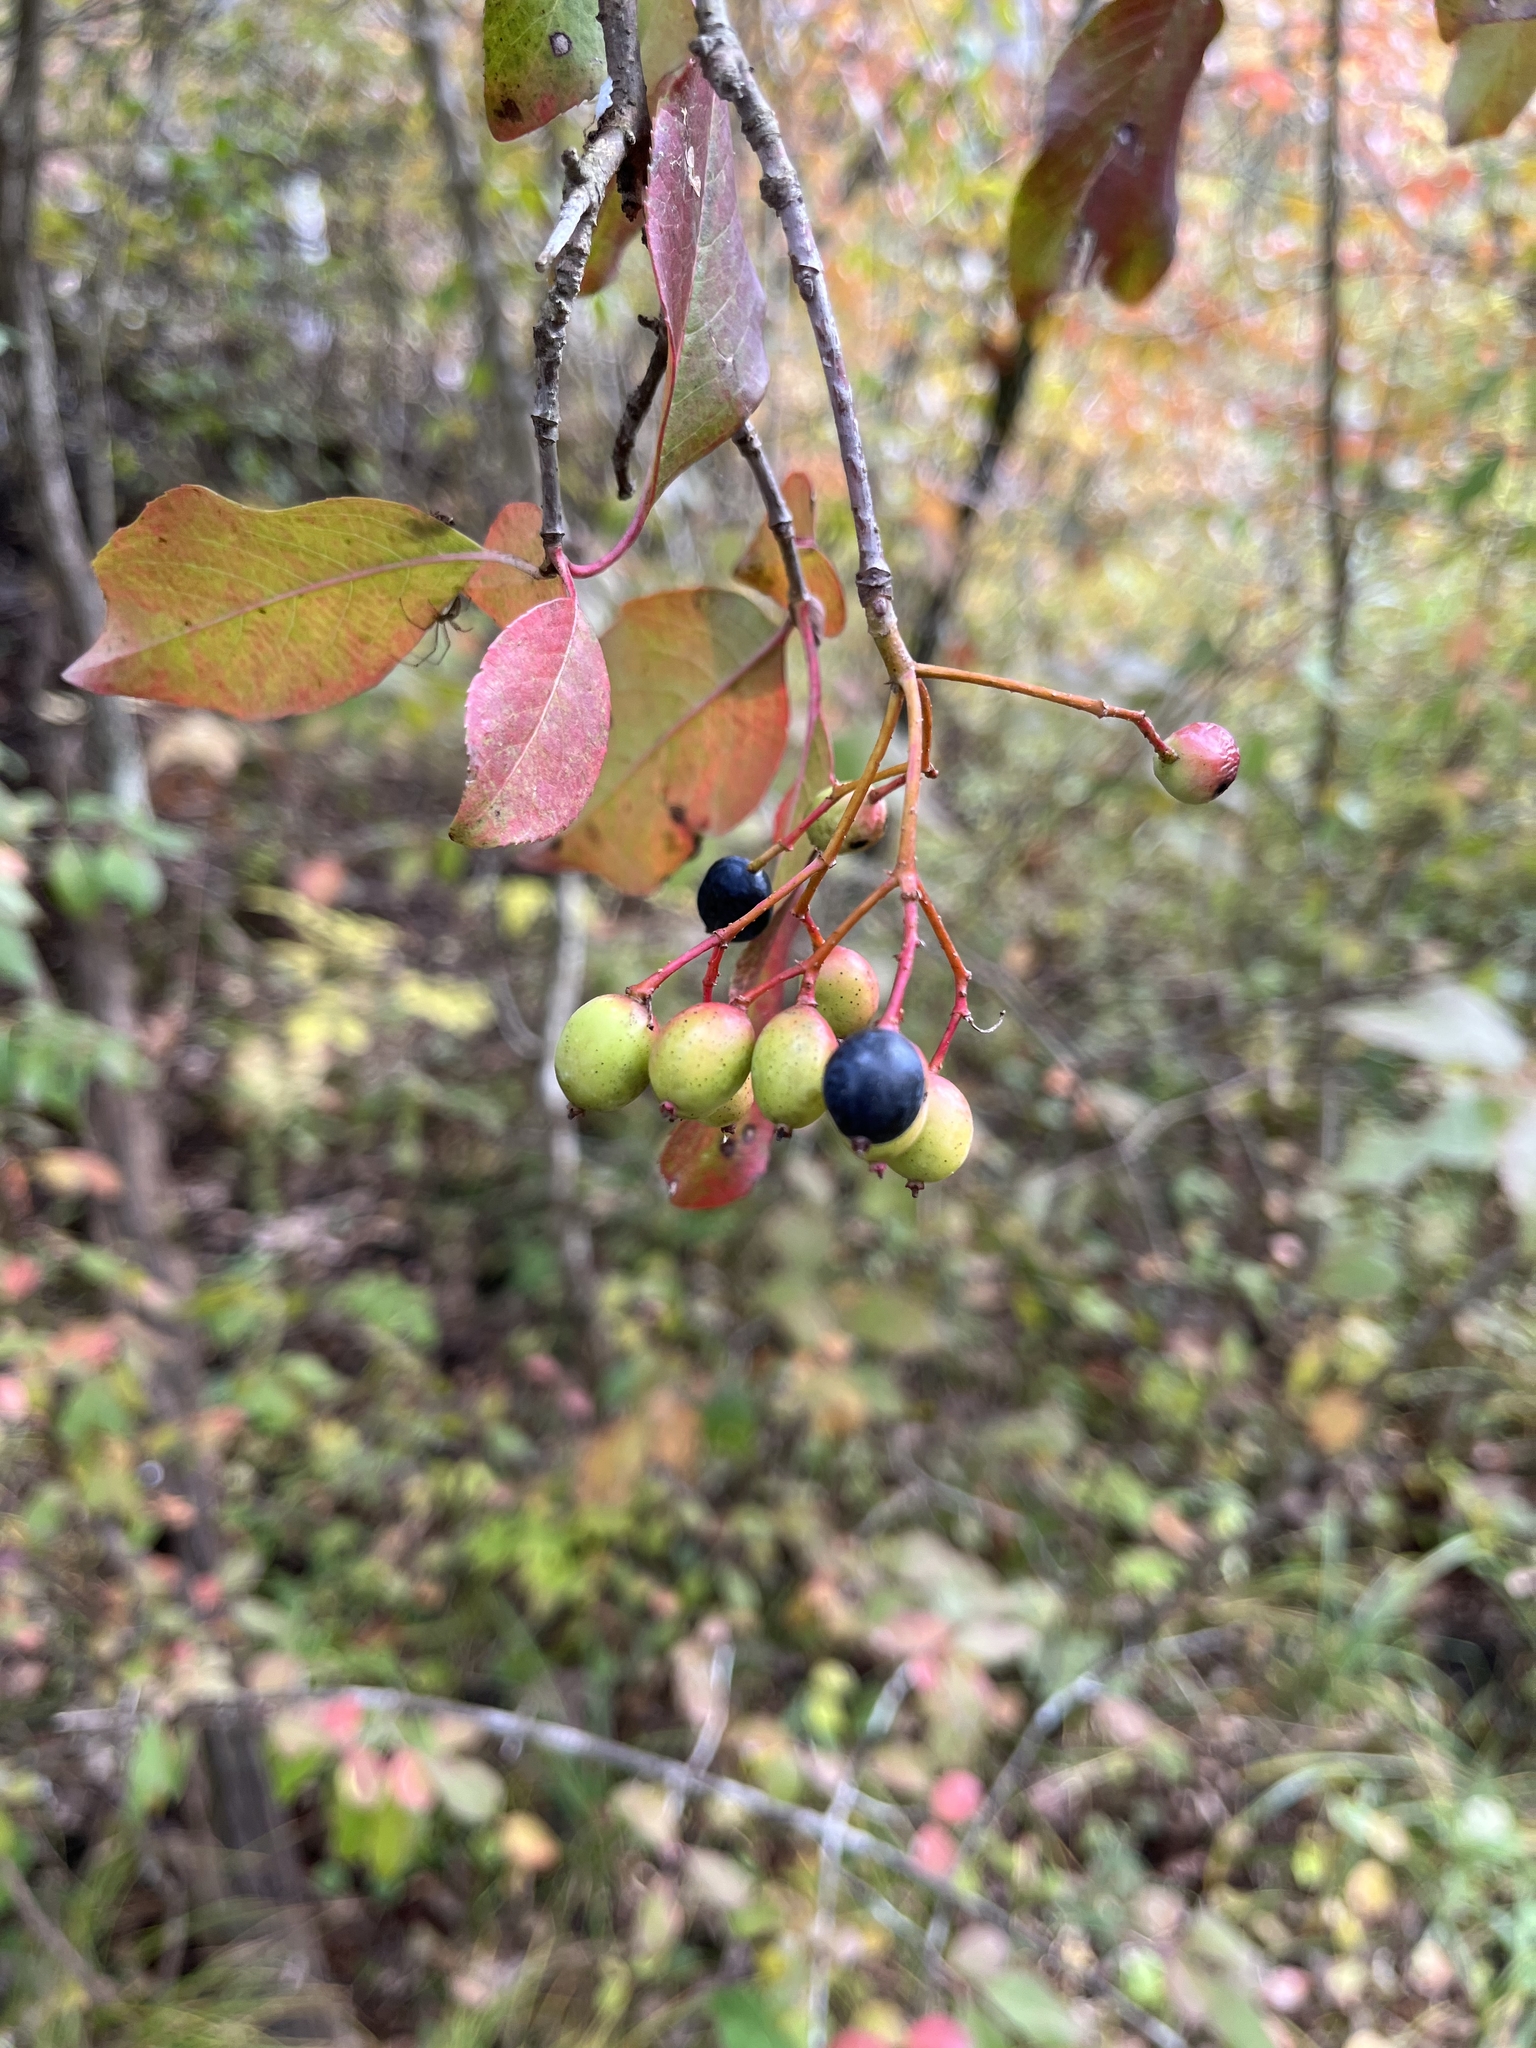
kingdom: Plantae
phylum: Tracheophyta
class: Magnoliopsida
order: Dipsacales
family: Viburnaceae
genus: Viburnum
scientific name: Viburnum prunifolium
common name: Black haw
